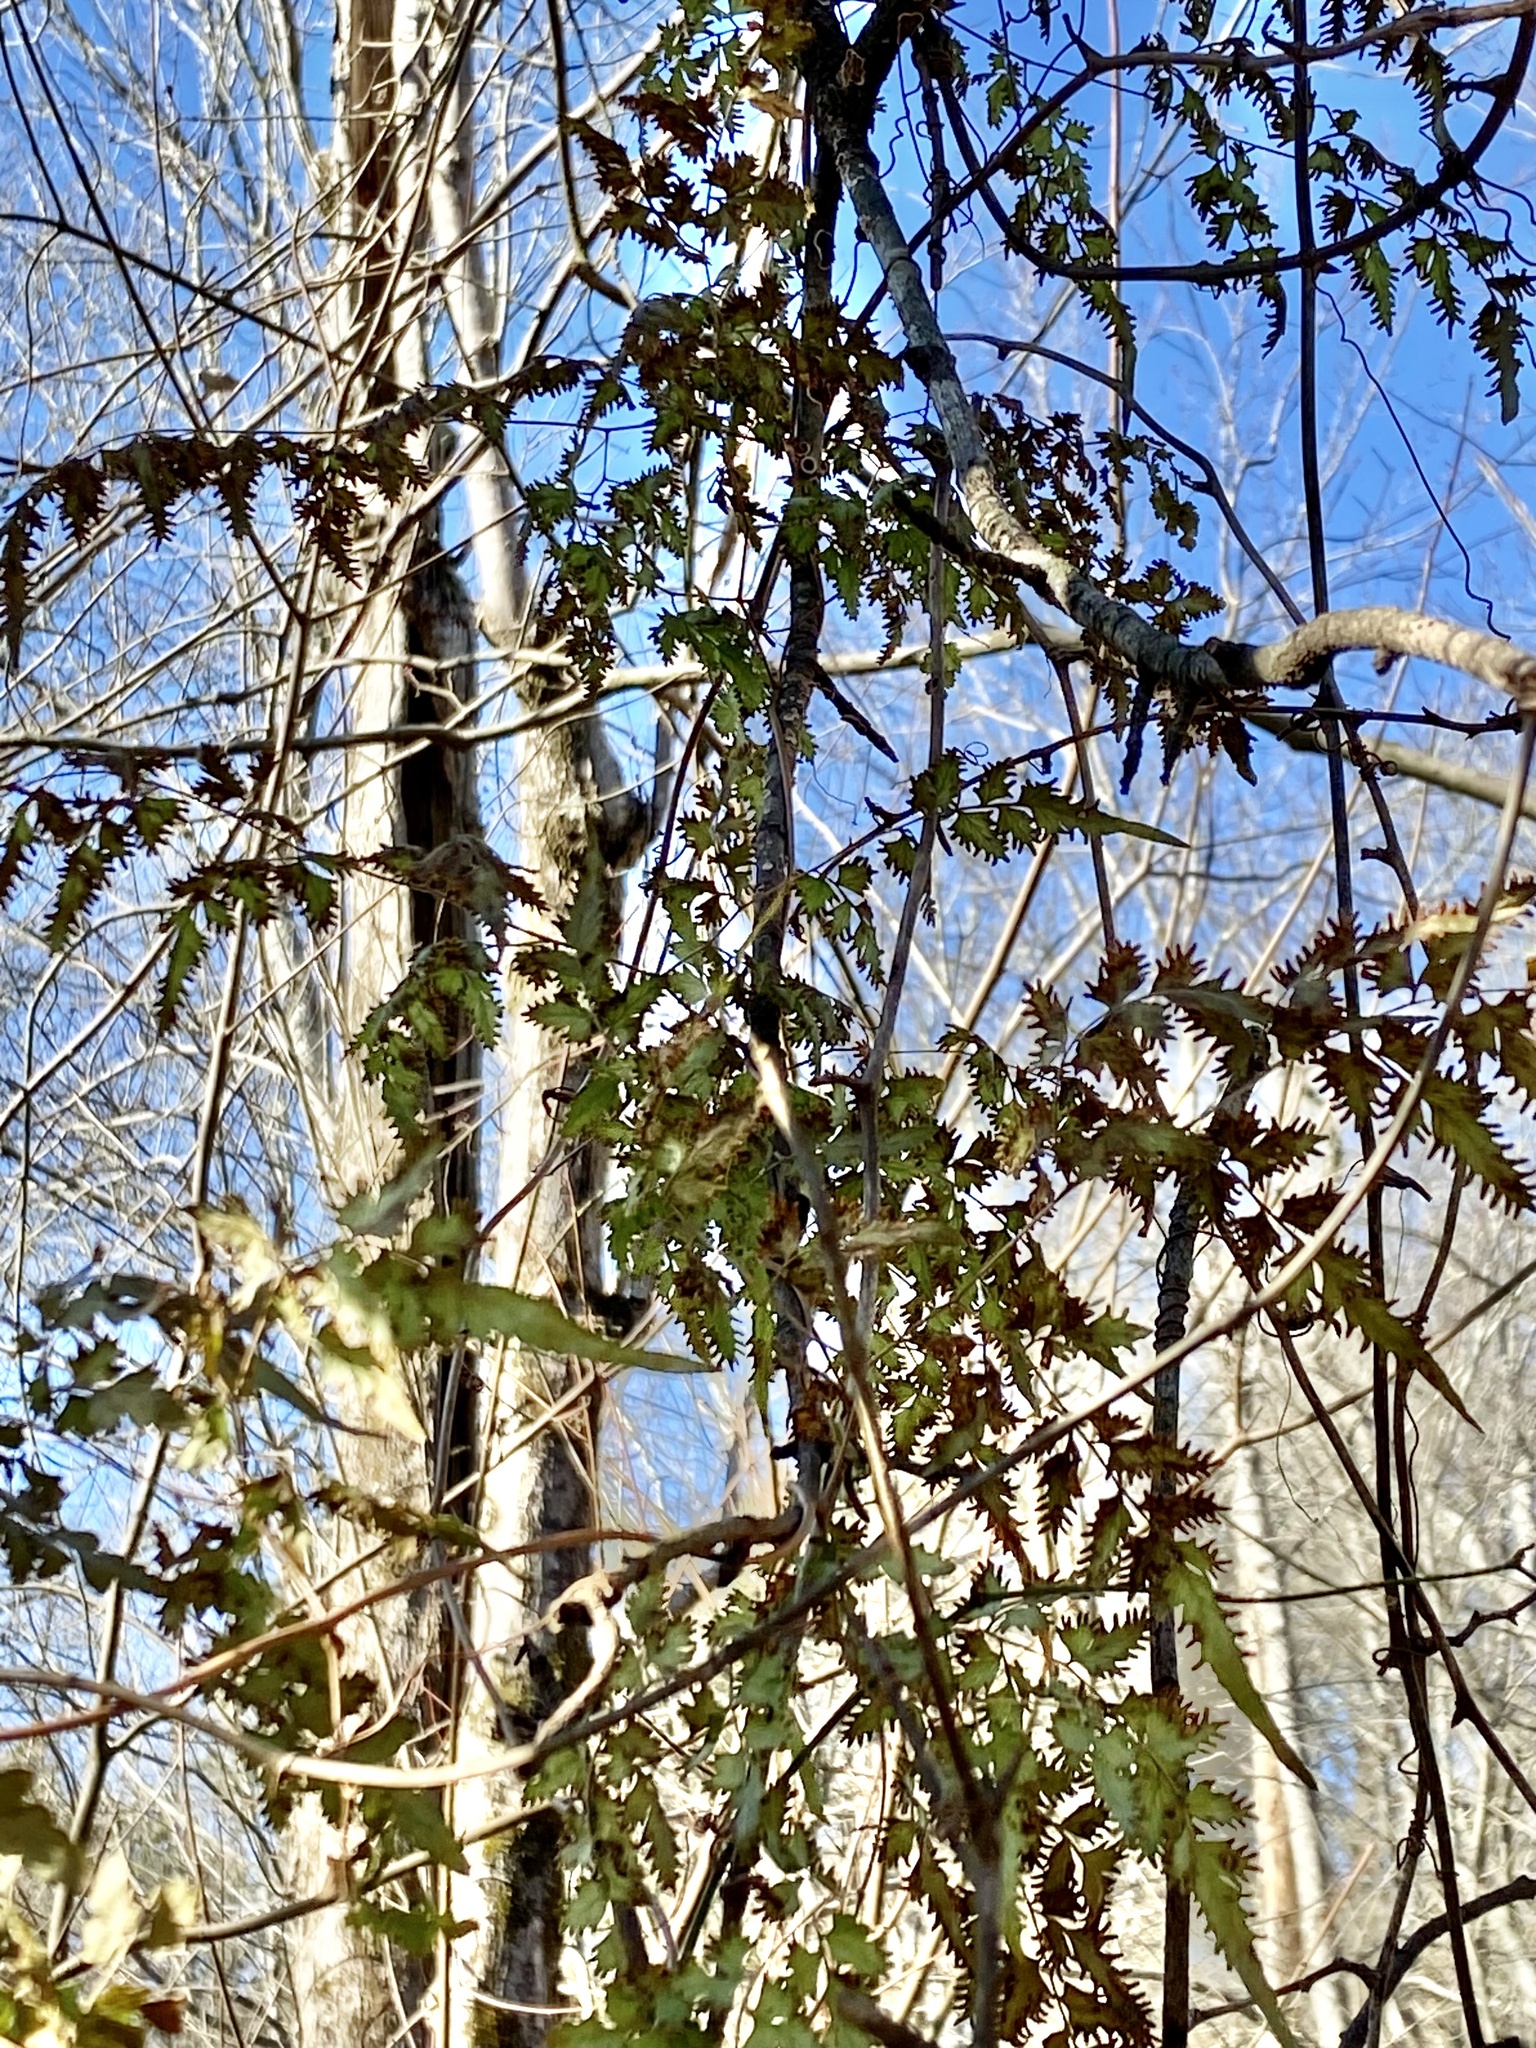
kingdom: Plantae
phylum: Tracheophyta
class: Polypodiopsida
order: Schizaeales
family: Lygodiaceae
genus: Lygodium
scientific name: Lygodium japonicum
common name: Japanese climbing fern
